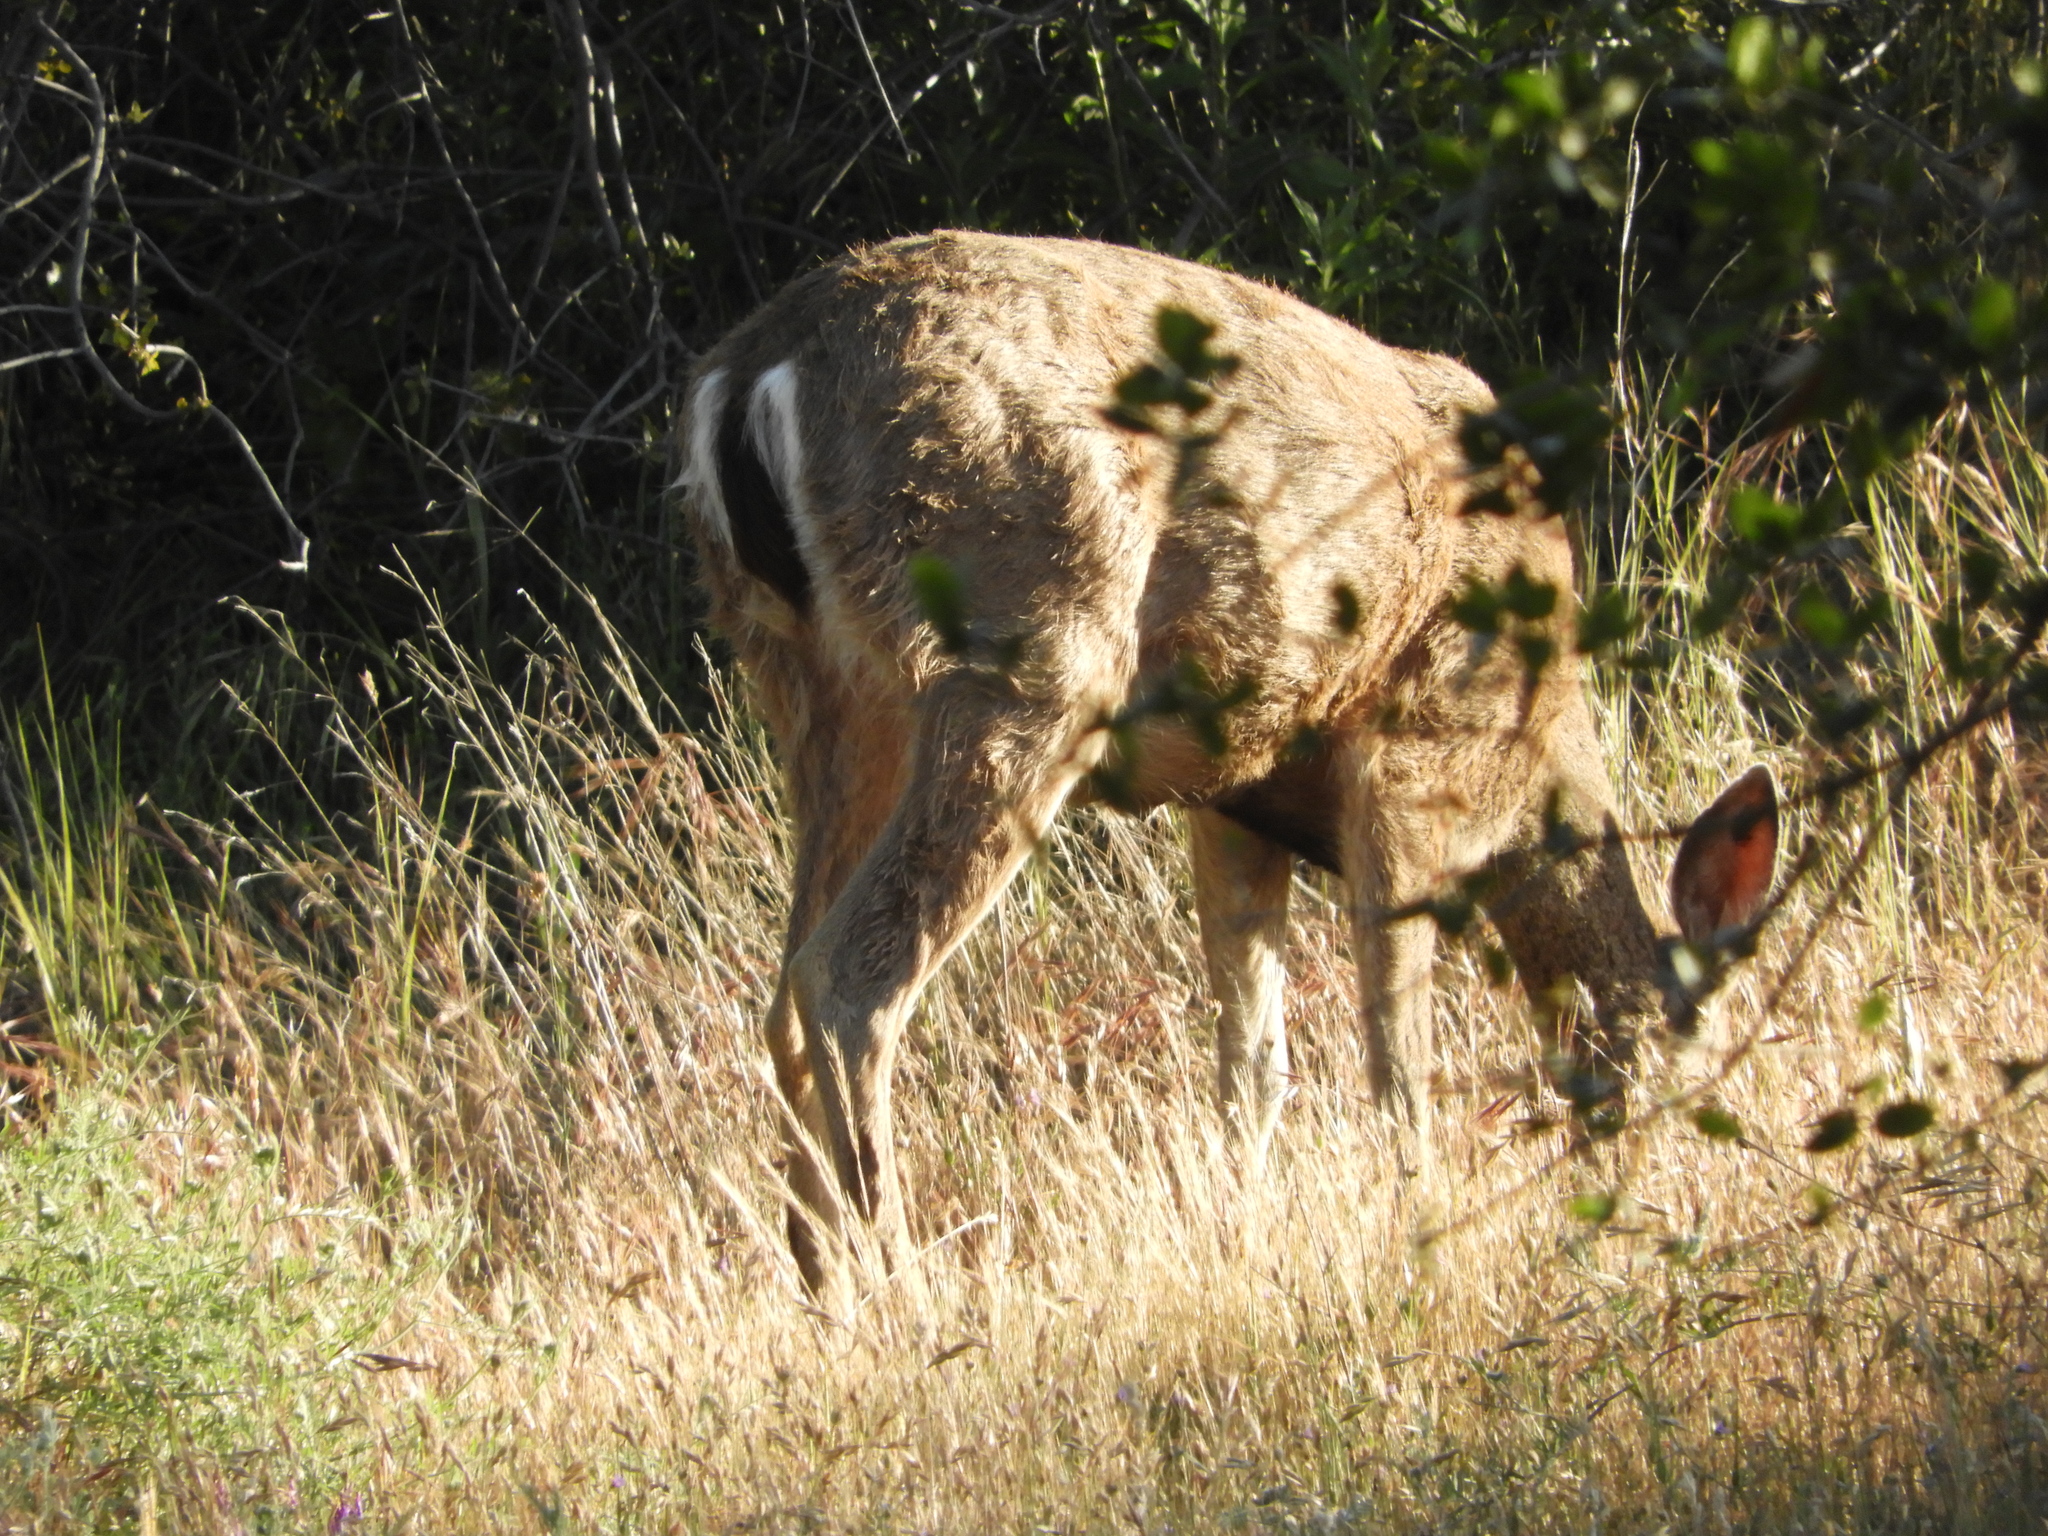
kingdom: Animalia
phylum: Chordata
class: Mammalia
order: Artiodactyla
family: Cervidae
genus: Odocoileus
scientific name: Odocoileus hemionus
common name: Mule deer
